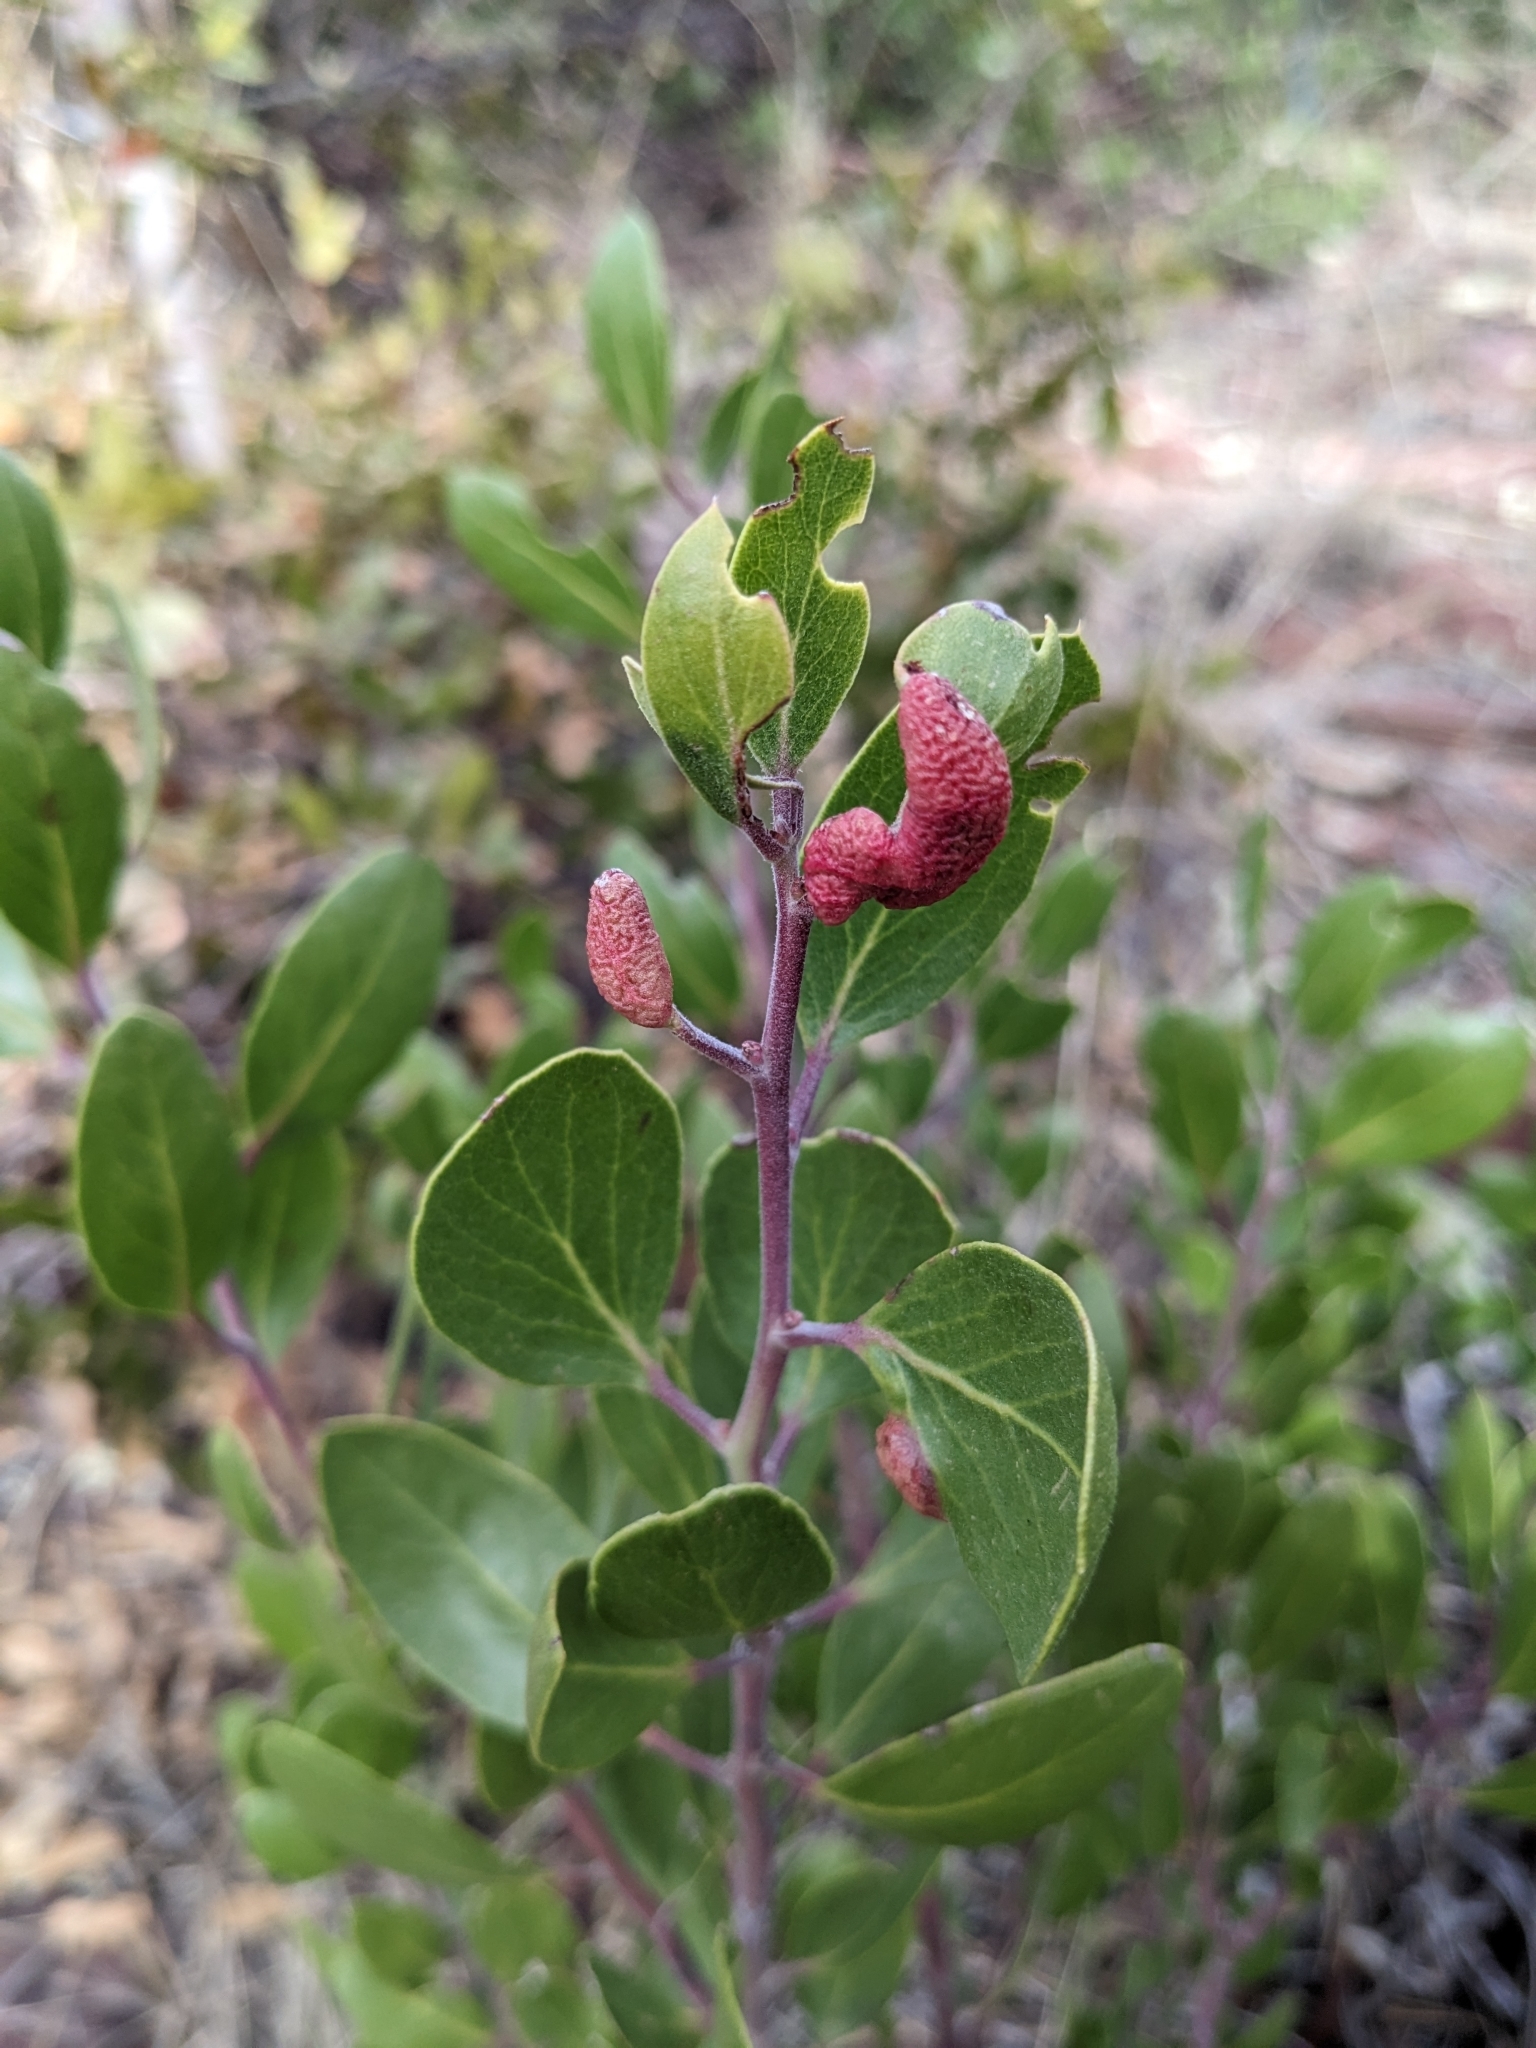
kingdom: Animalia
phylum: Arthropoda
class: Insecta
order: Hemiptera
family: Aphididae
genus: Tamalia
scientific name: Tamalia coweni
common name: Manzanita leafgall aphid
